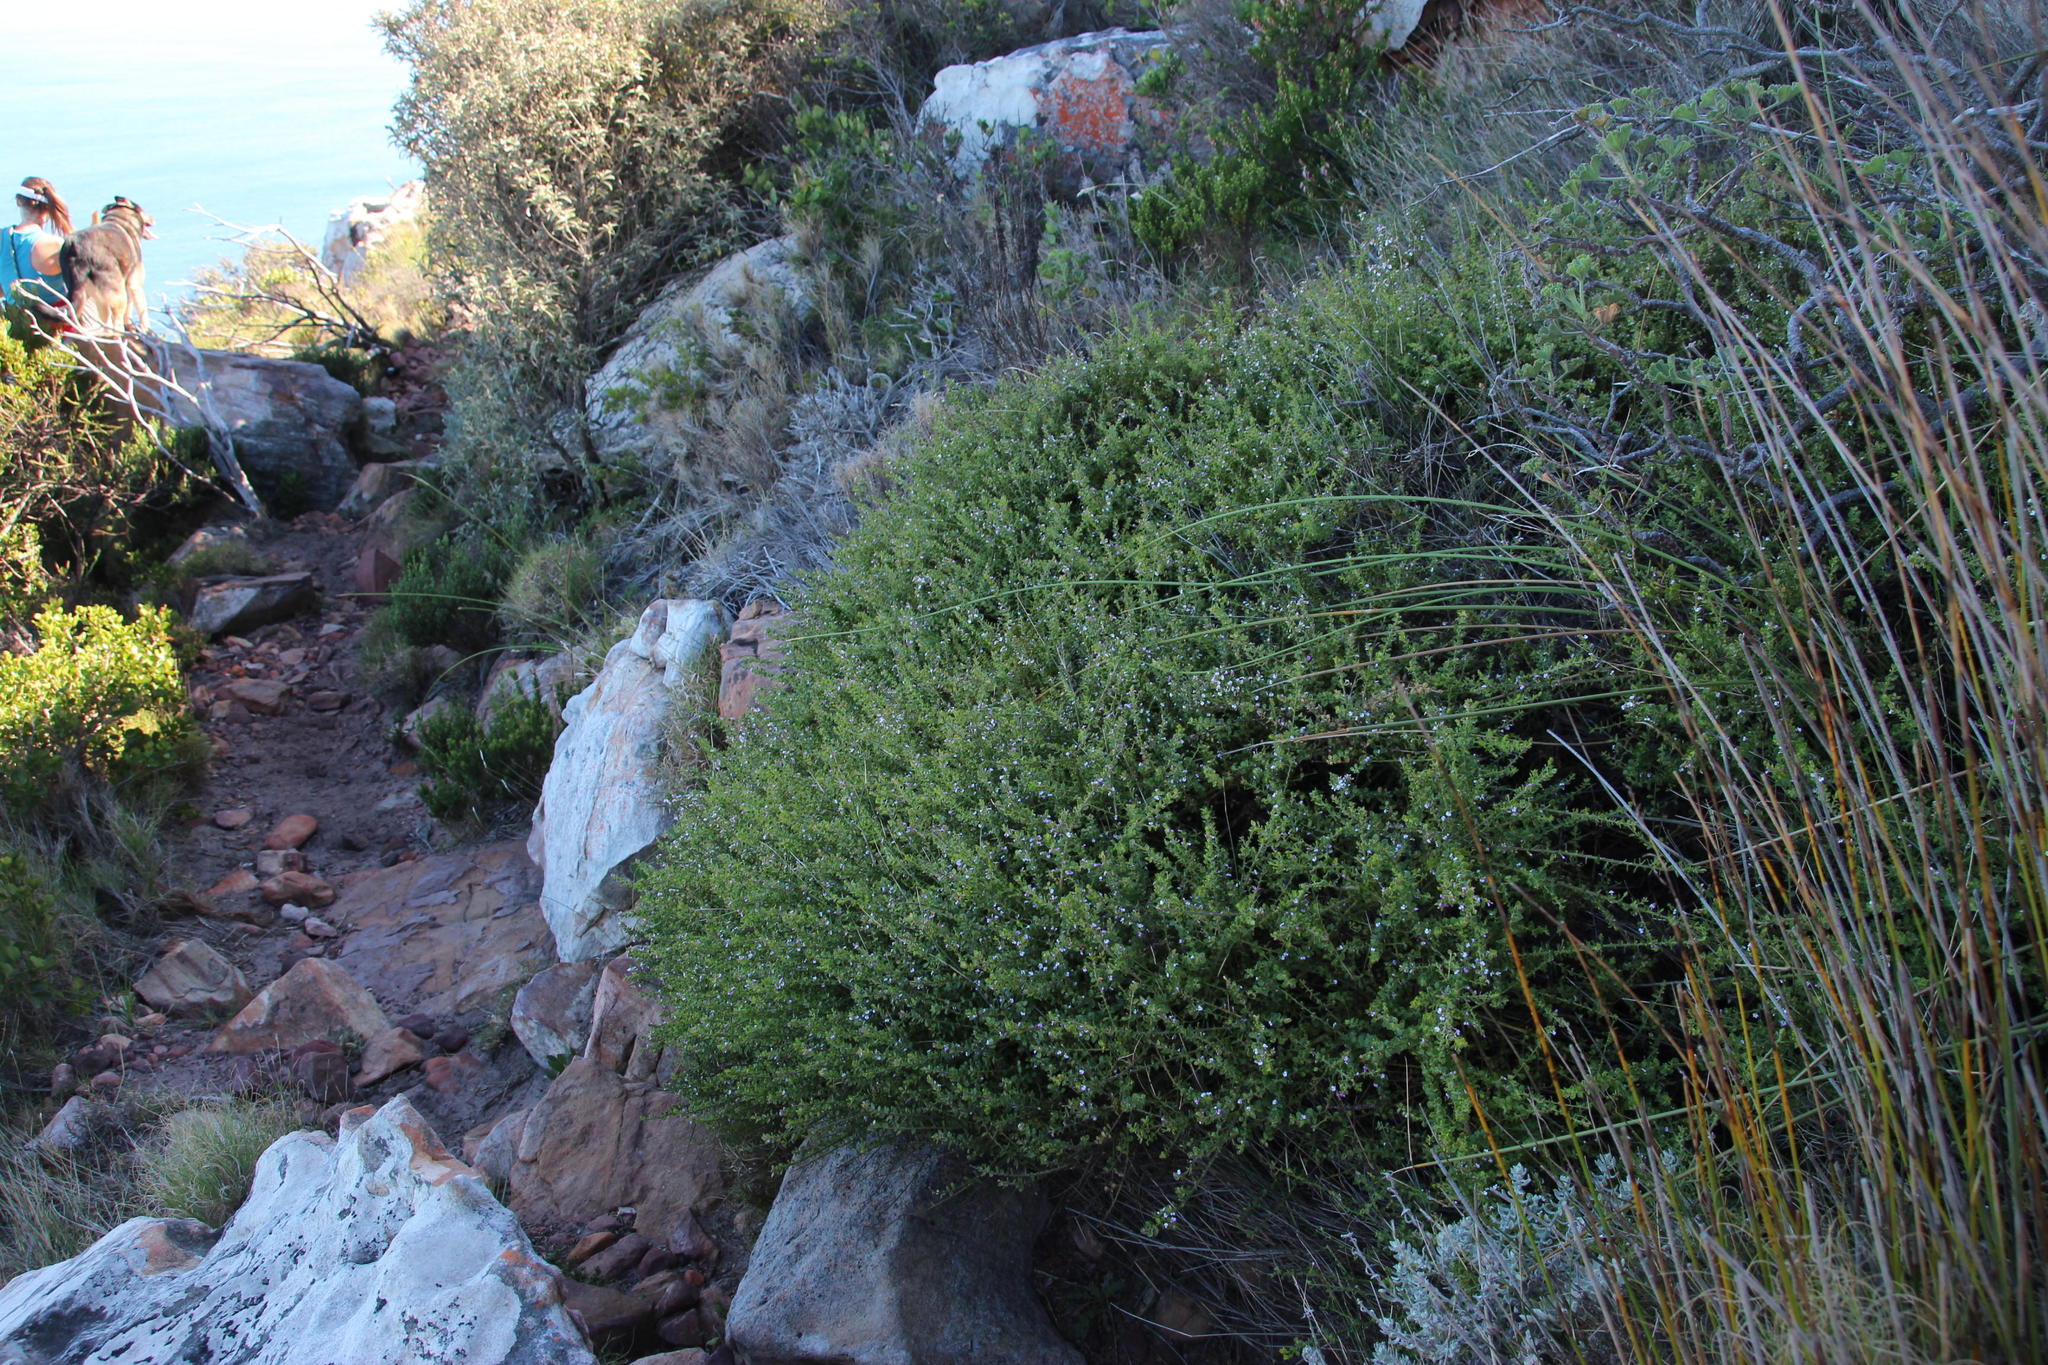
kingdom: Plantae
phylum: Tracheophyta
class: Magnoliopsida
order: Fabales
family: Polygalaceae
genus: Muraltia
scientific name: Muraltia orbicularis
